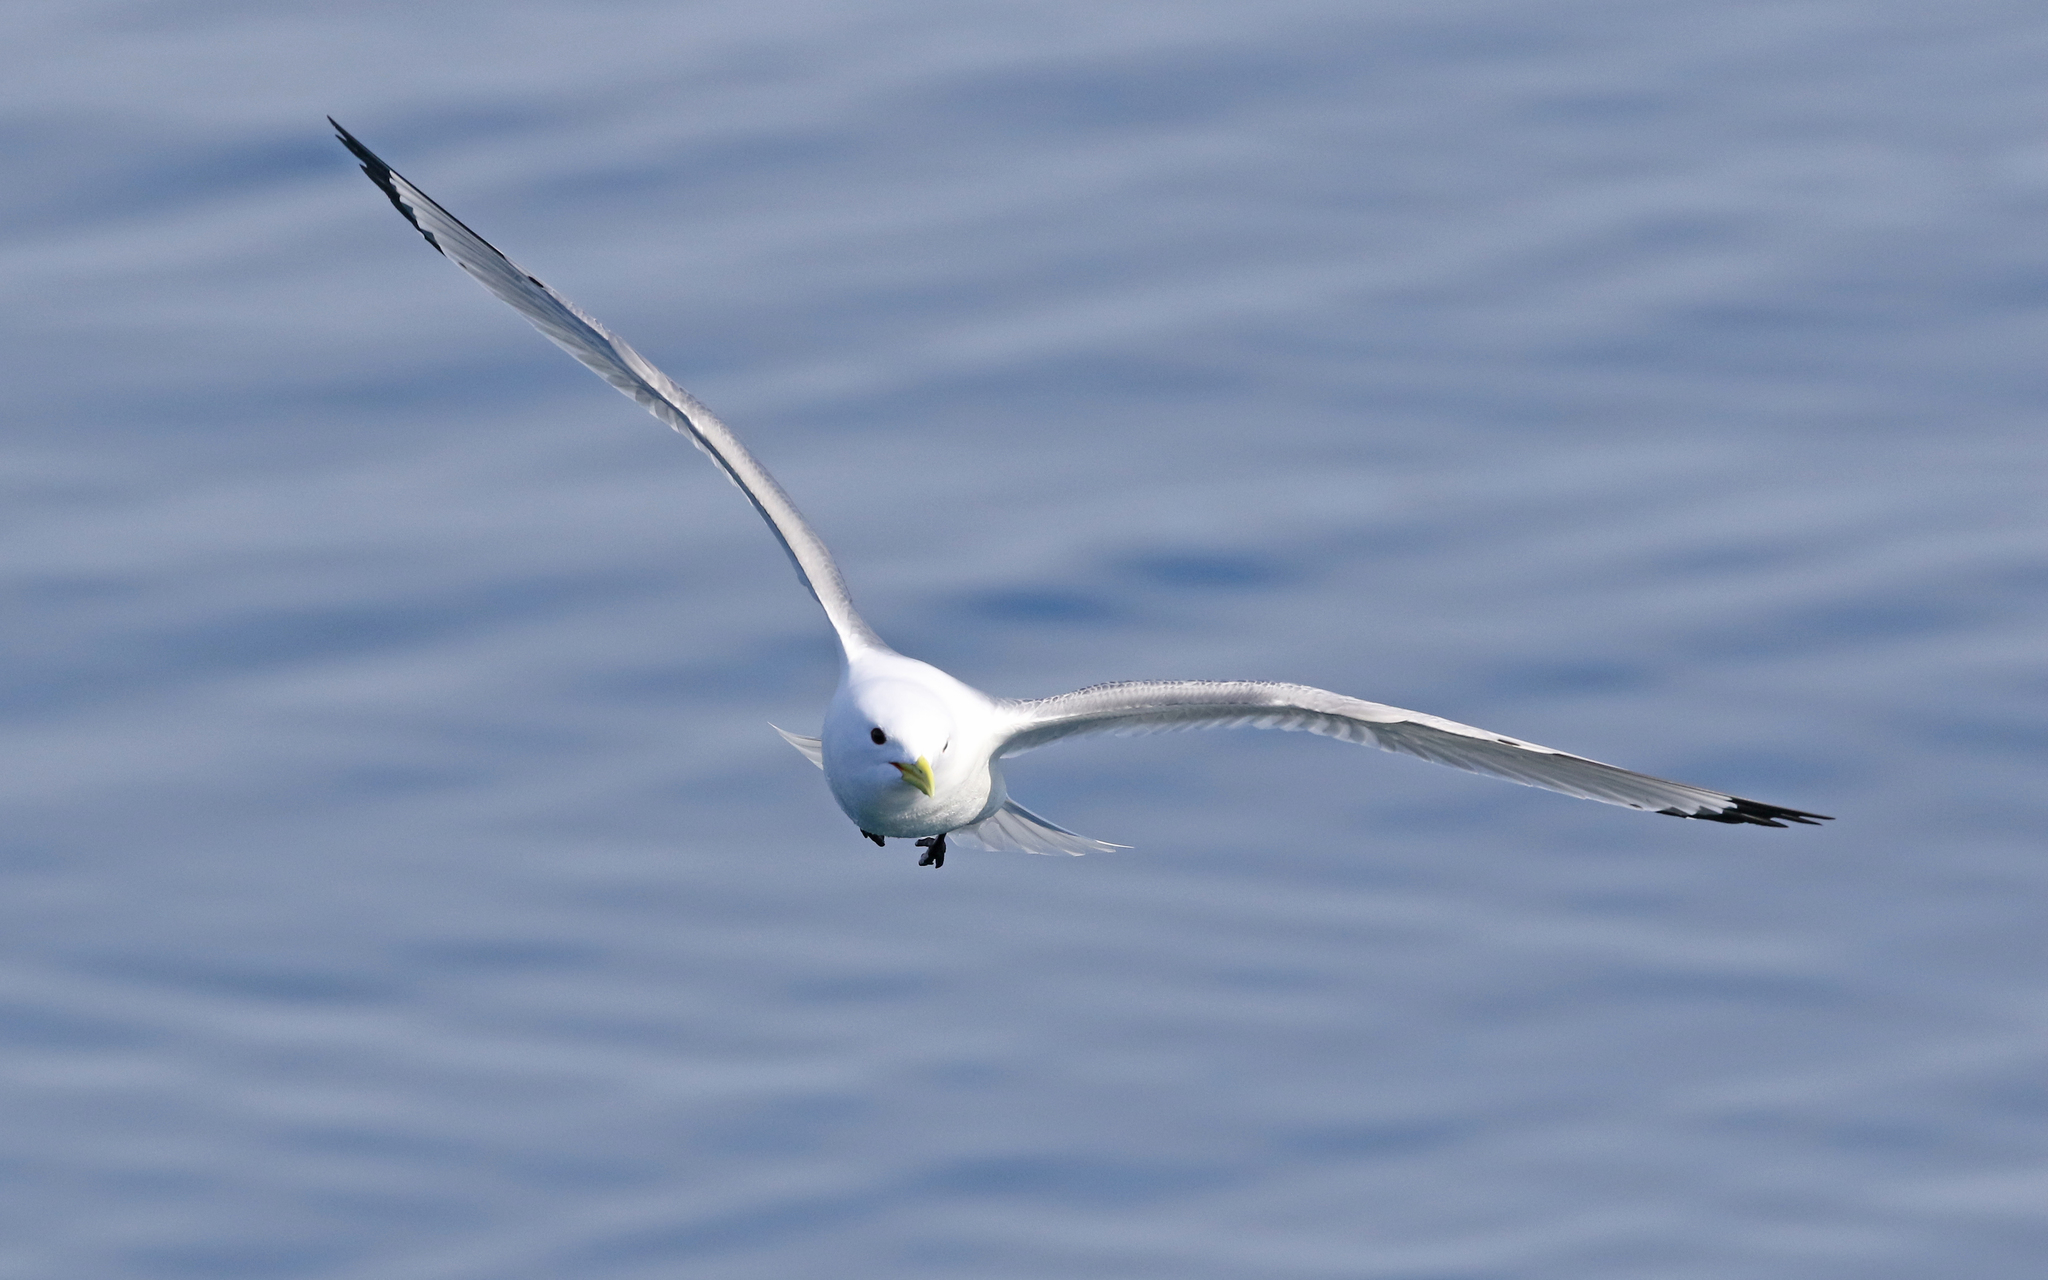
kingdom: Animalia
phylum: Chordata
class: Aves
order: Charadriiformes
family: Laridae
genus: Rissa
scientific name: Rissa tridactyla
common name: Black-legged kittiwake
